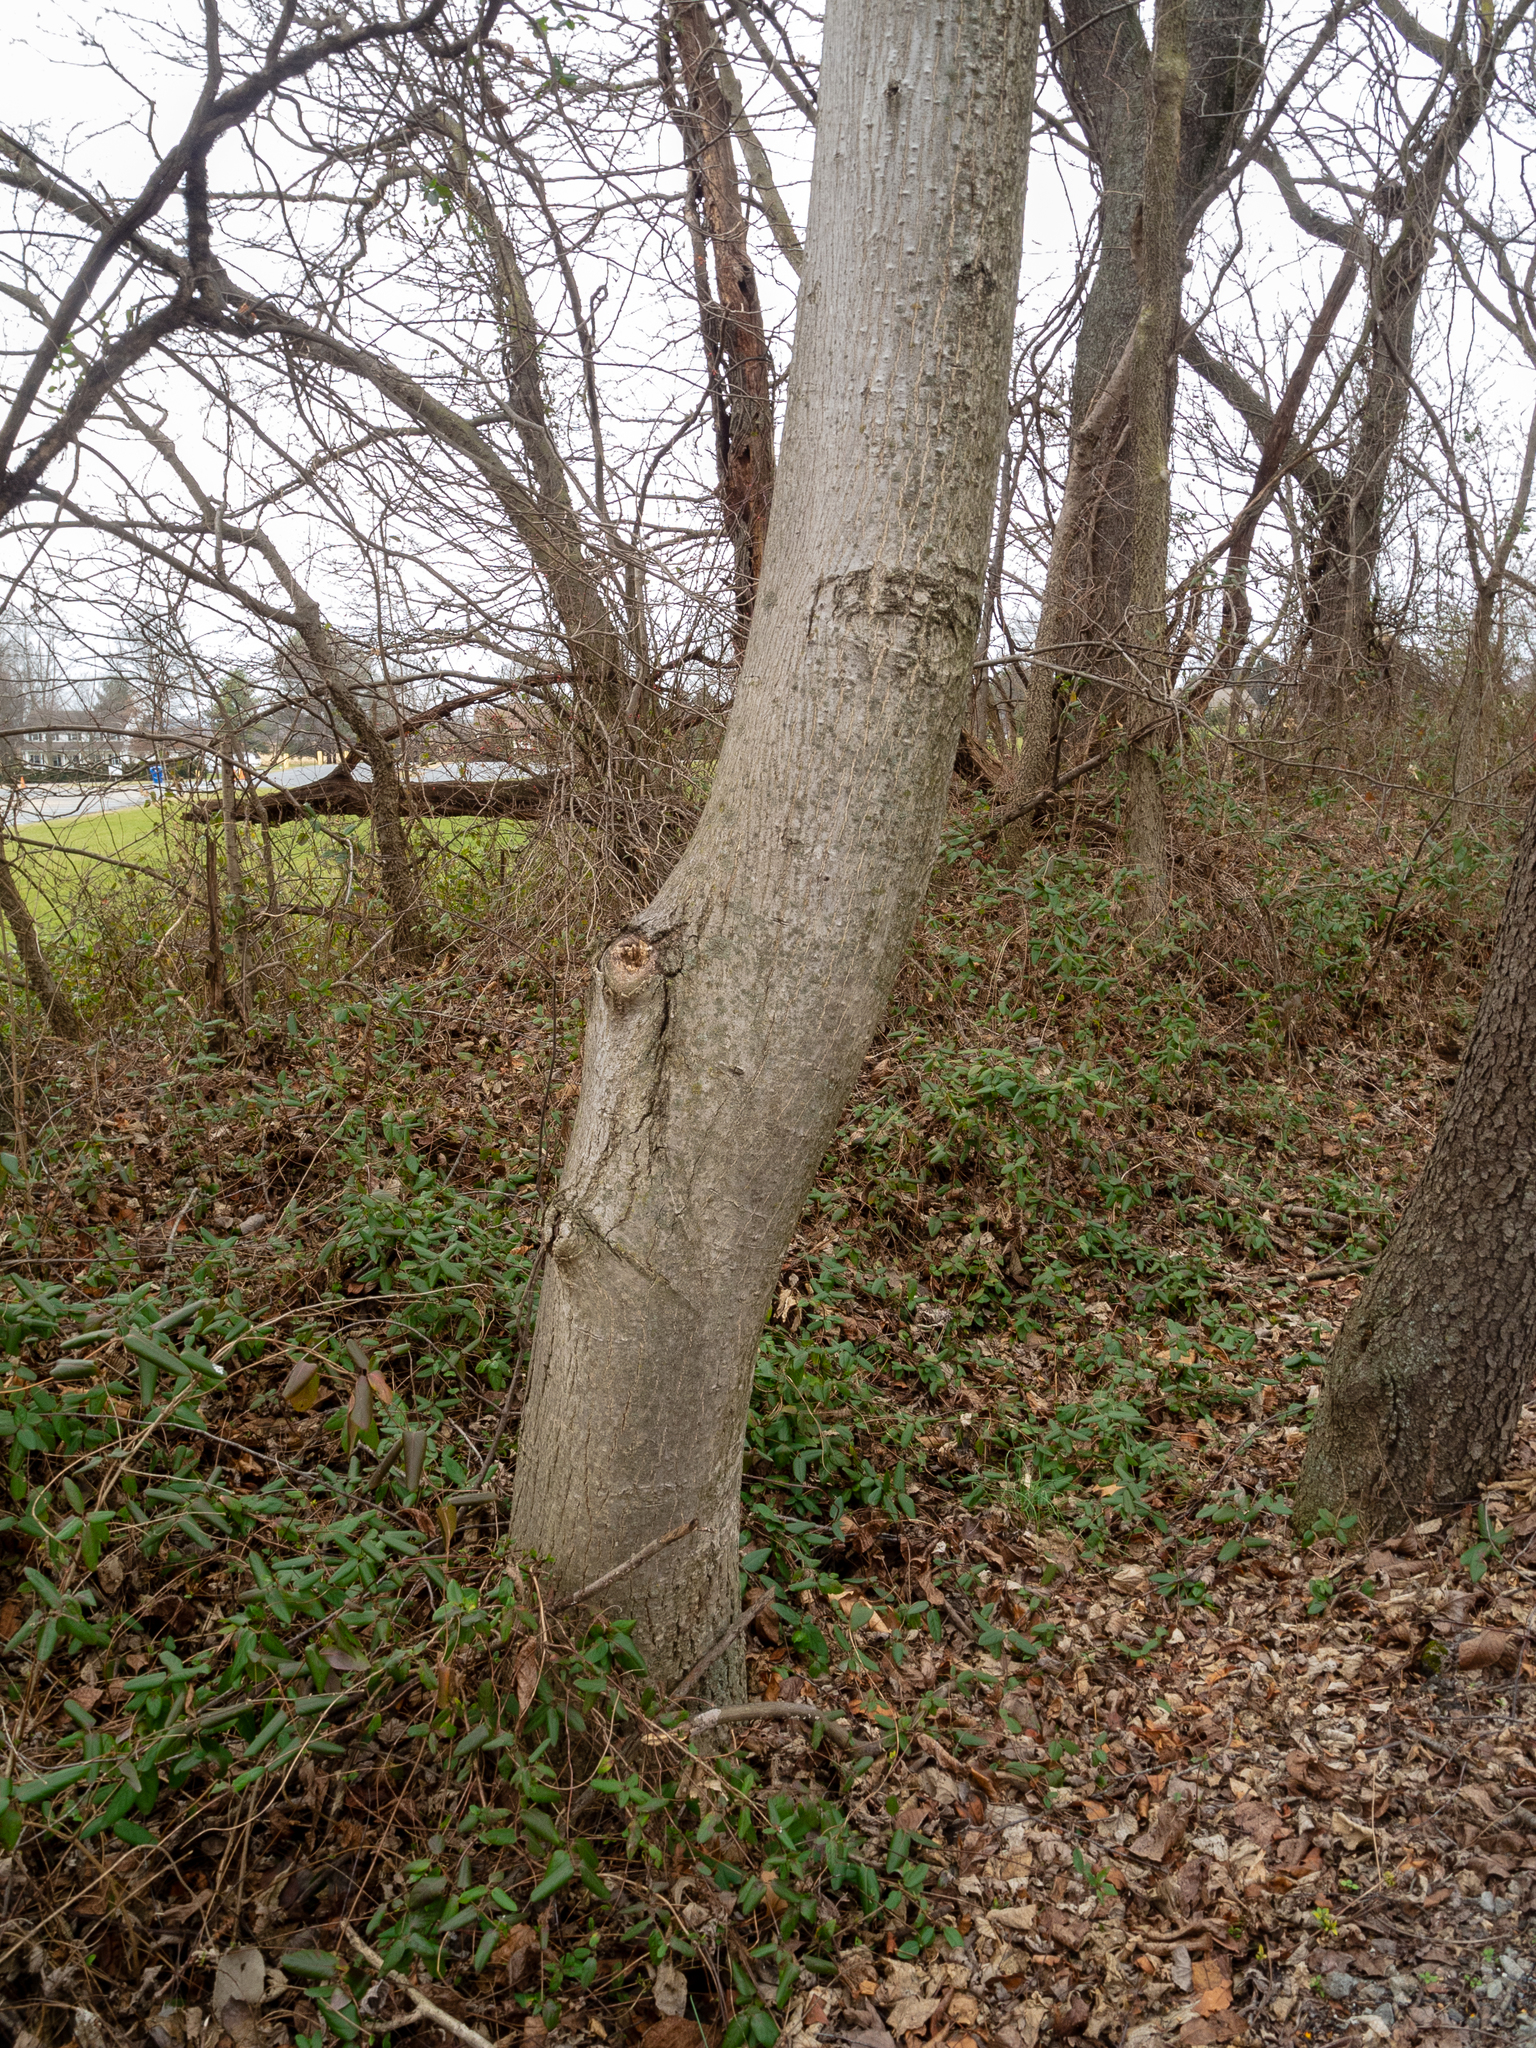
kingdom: Plantae
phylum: Tracheophyta
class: Magnoliopsida
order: Fagales
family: Juglandaceae
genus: Juglans
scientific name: Juglans regia
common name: Walnut
